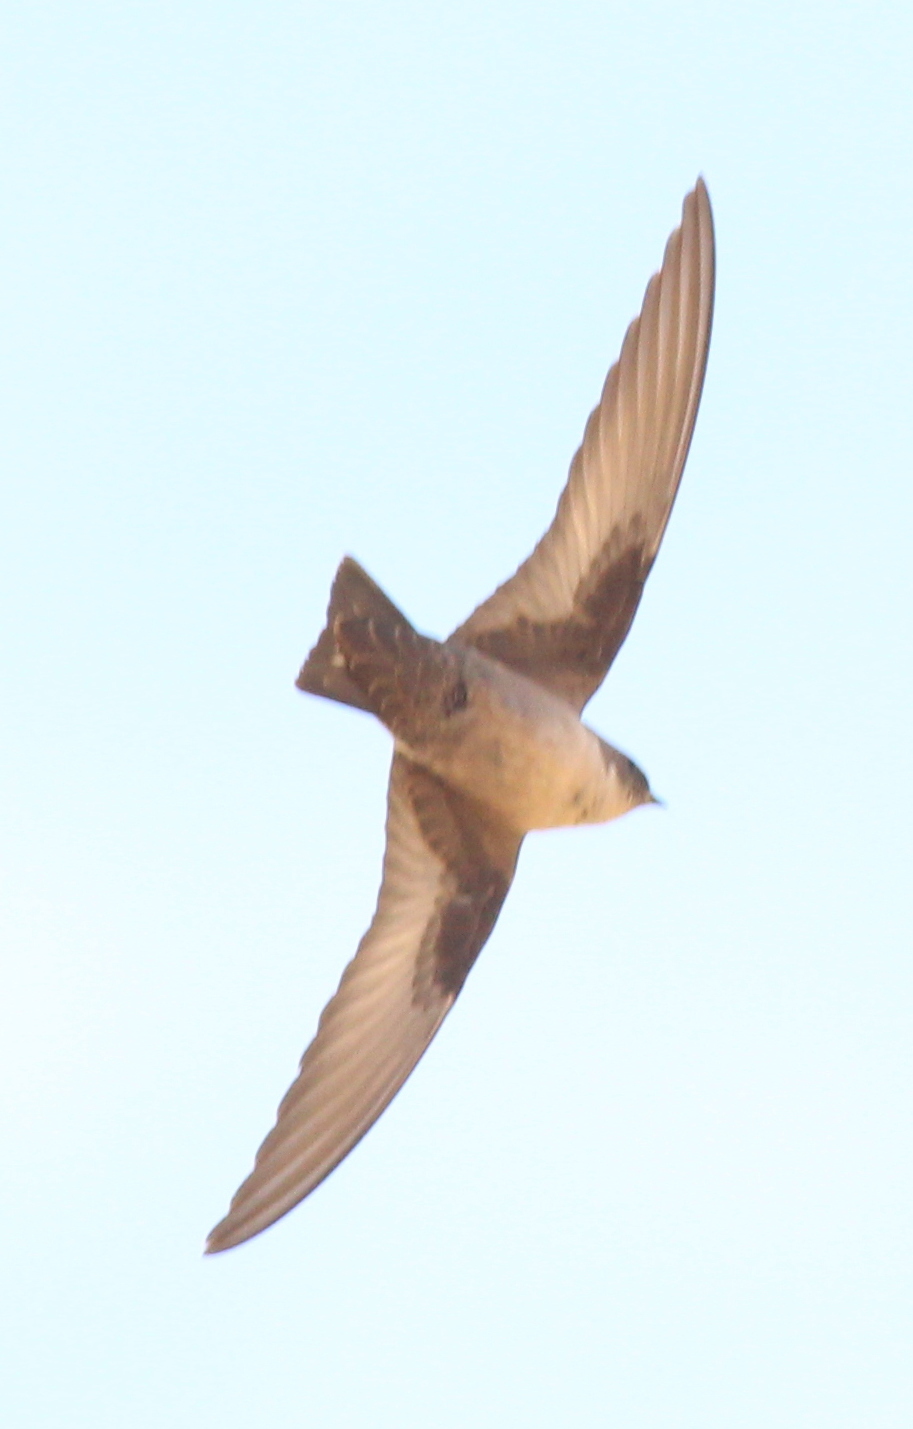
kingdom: Animalia
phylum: Chordata
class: Aves
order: Passeriformes
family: Hirundinidae
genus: Ptyonoprogne
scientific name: Ptyonoprogne rupestris
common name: Eurasian crag martin
